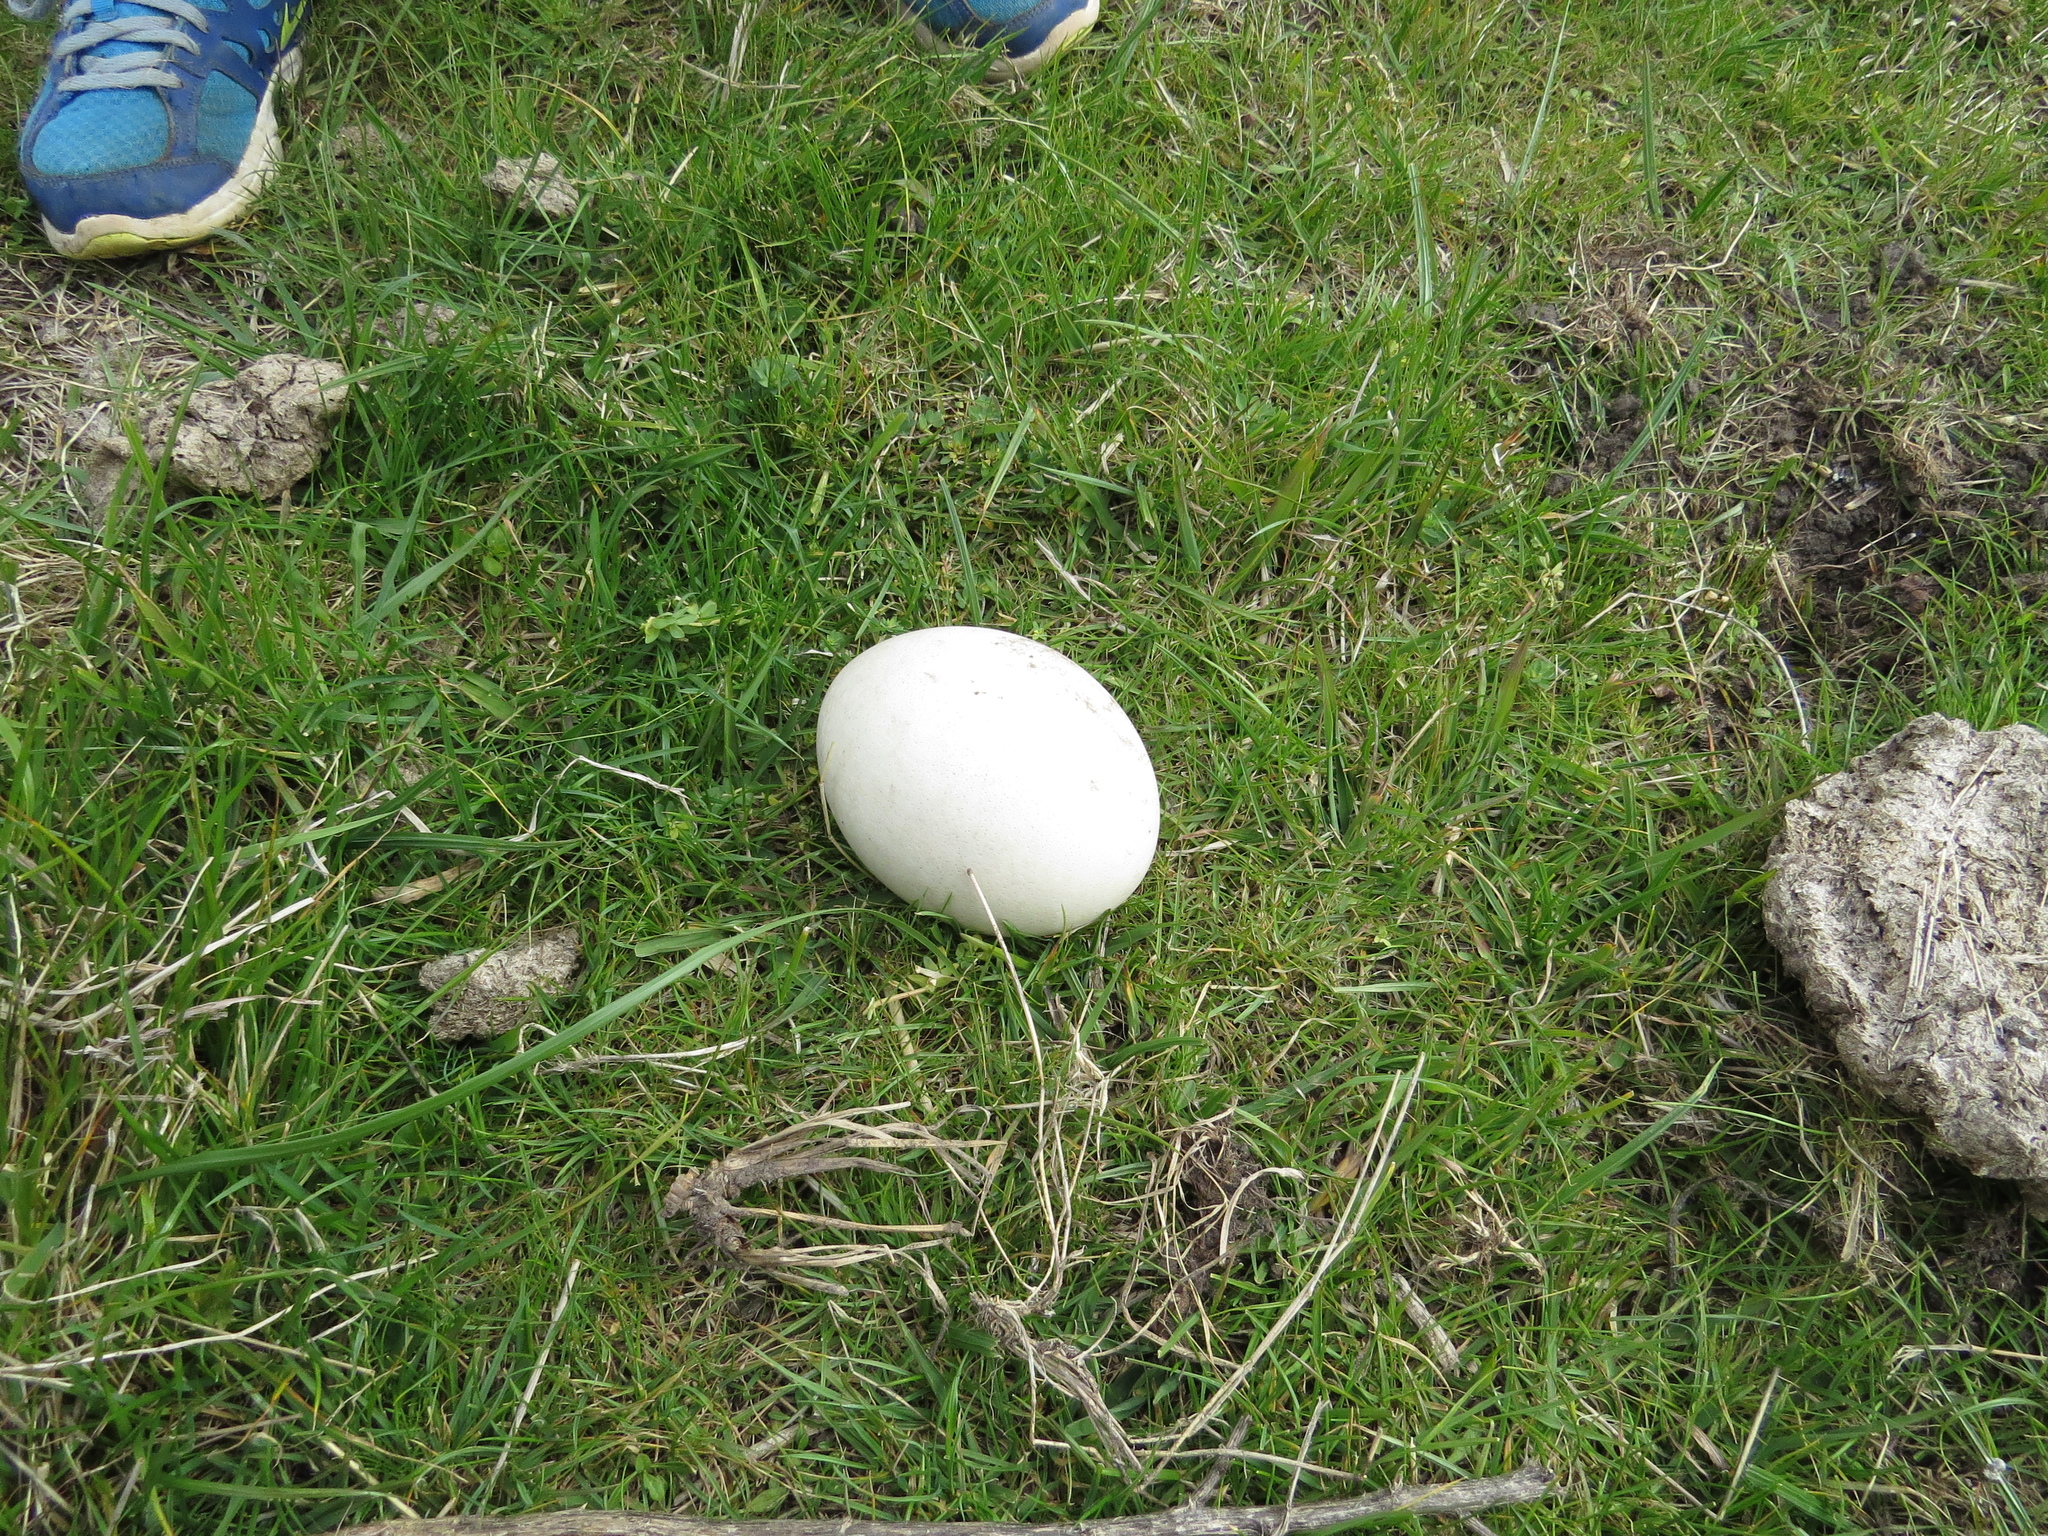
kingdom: Animalia
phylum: Chordata
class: Aves
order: Rheiformes
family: Rheidae
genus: Rhea
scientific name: Rhea americana
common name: Greater rhea
